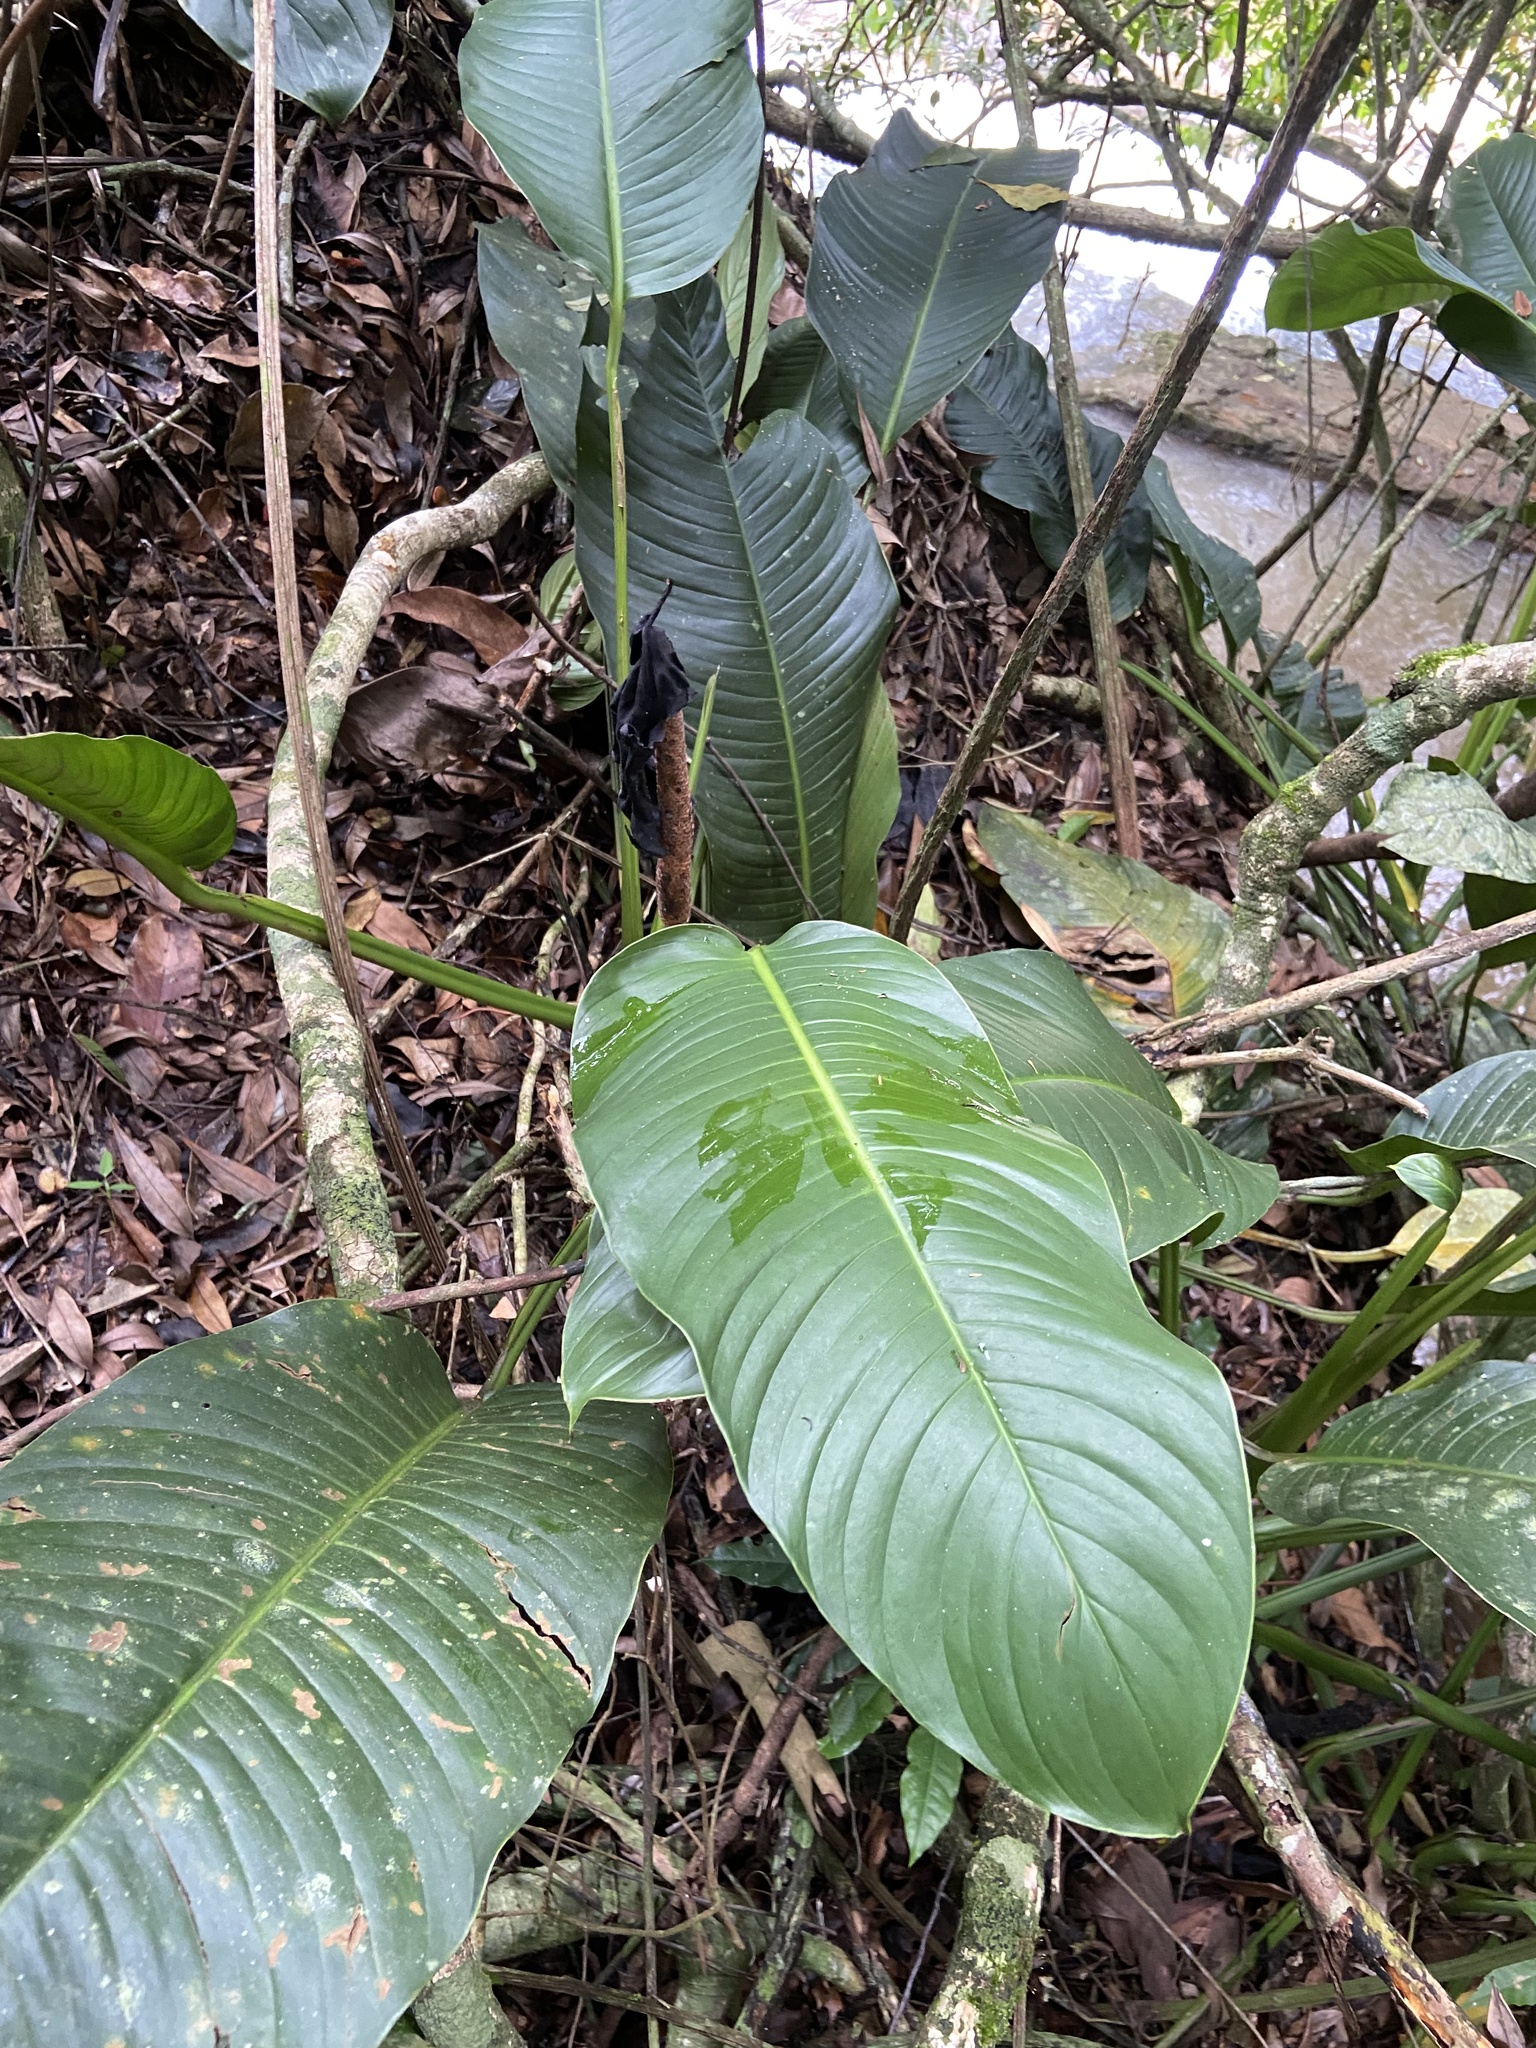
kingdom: Plantae
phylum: Tracheophyta
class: Liliopsida
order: Alismatales
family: Araceae
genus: Rhodospatha
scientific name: Rhodospatha latifolia
